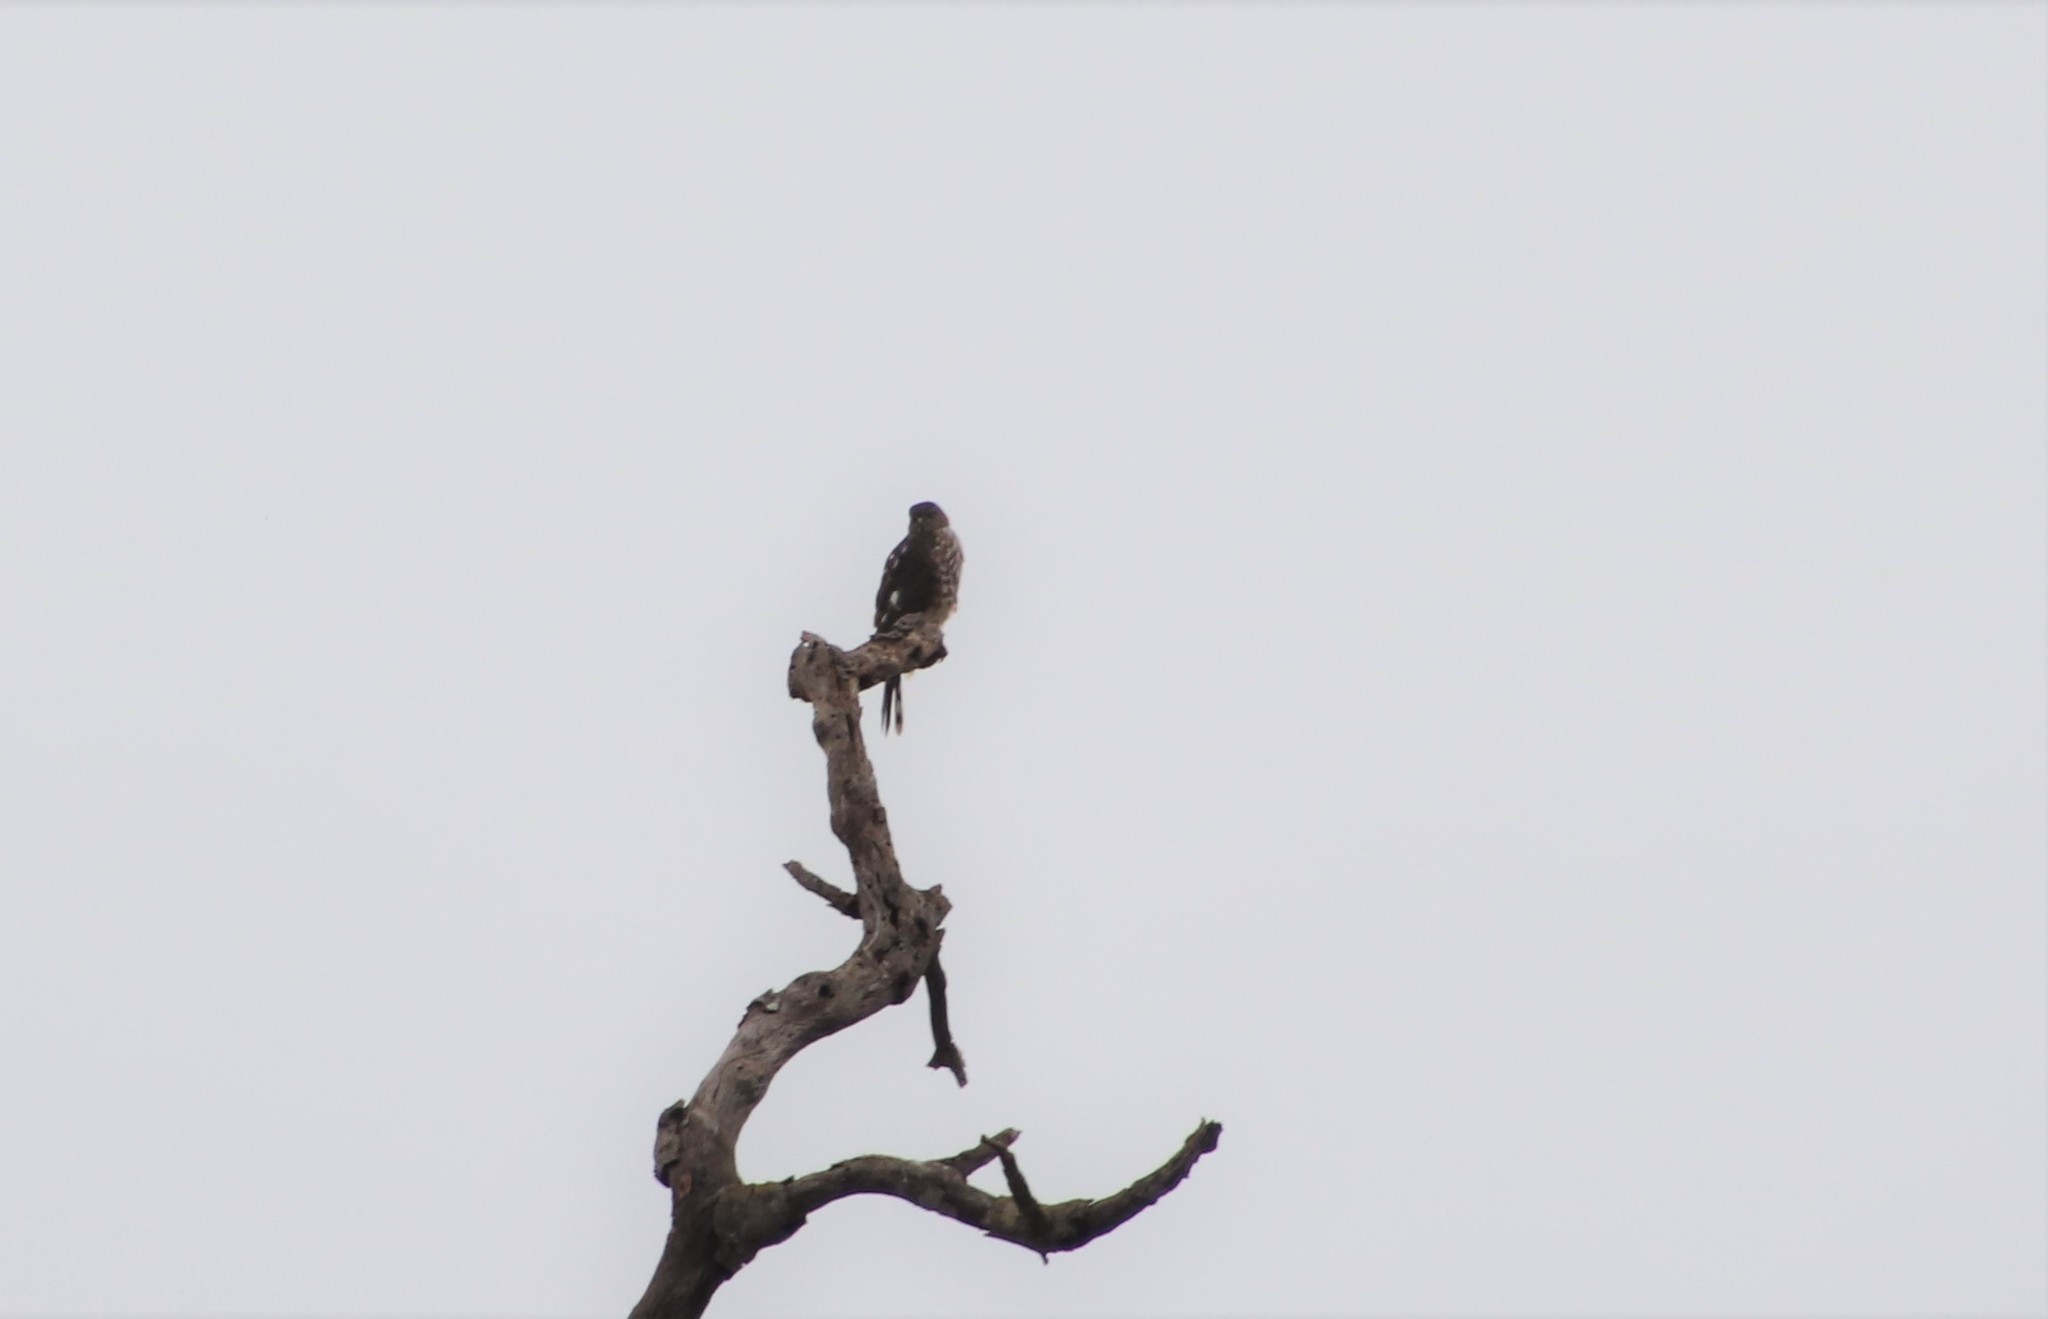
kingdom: Animalia
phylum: Chordata
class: Aves
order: Accipitriformes
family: Accipitridae
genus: Accipiter
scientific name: Accipiter striatus
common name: Sharp-shinned hawk
